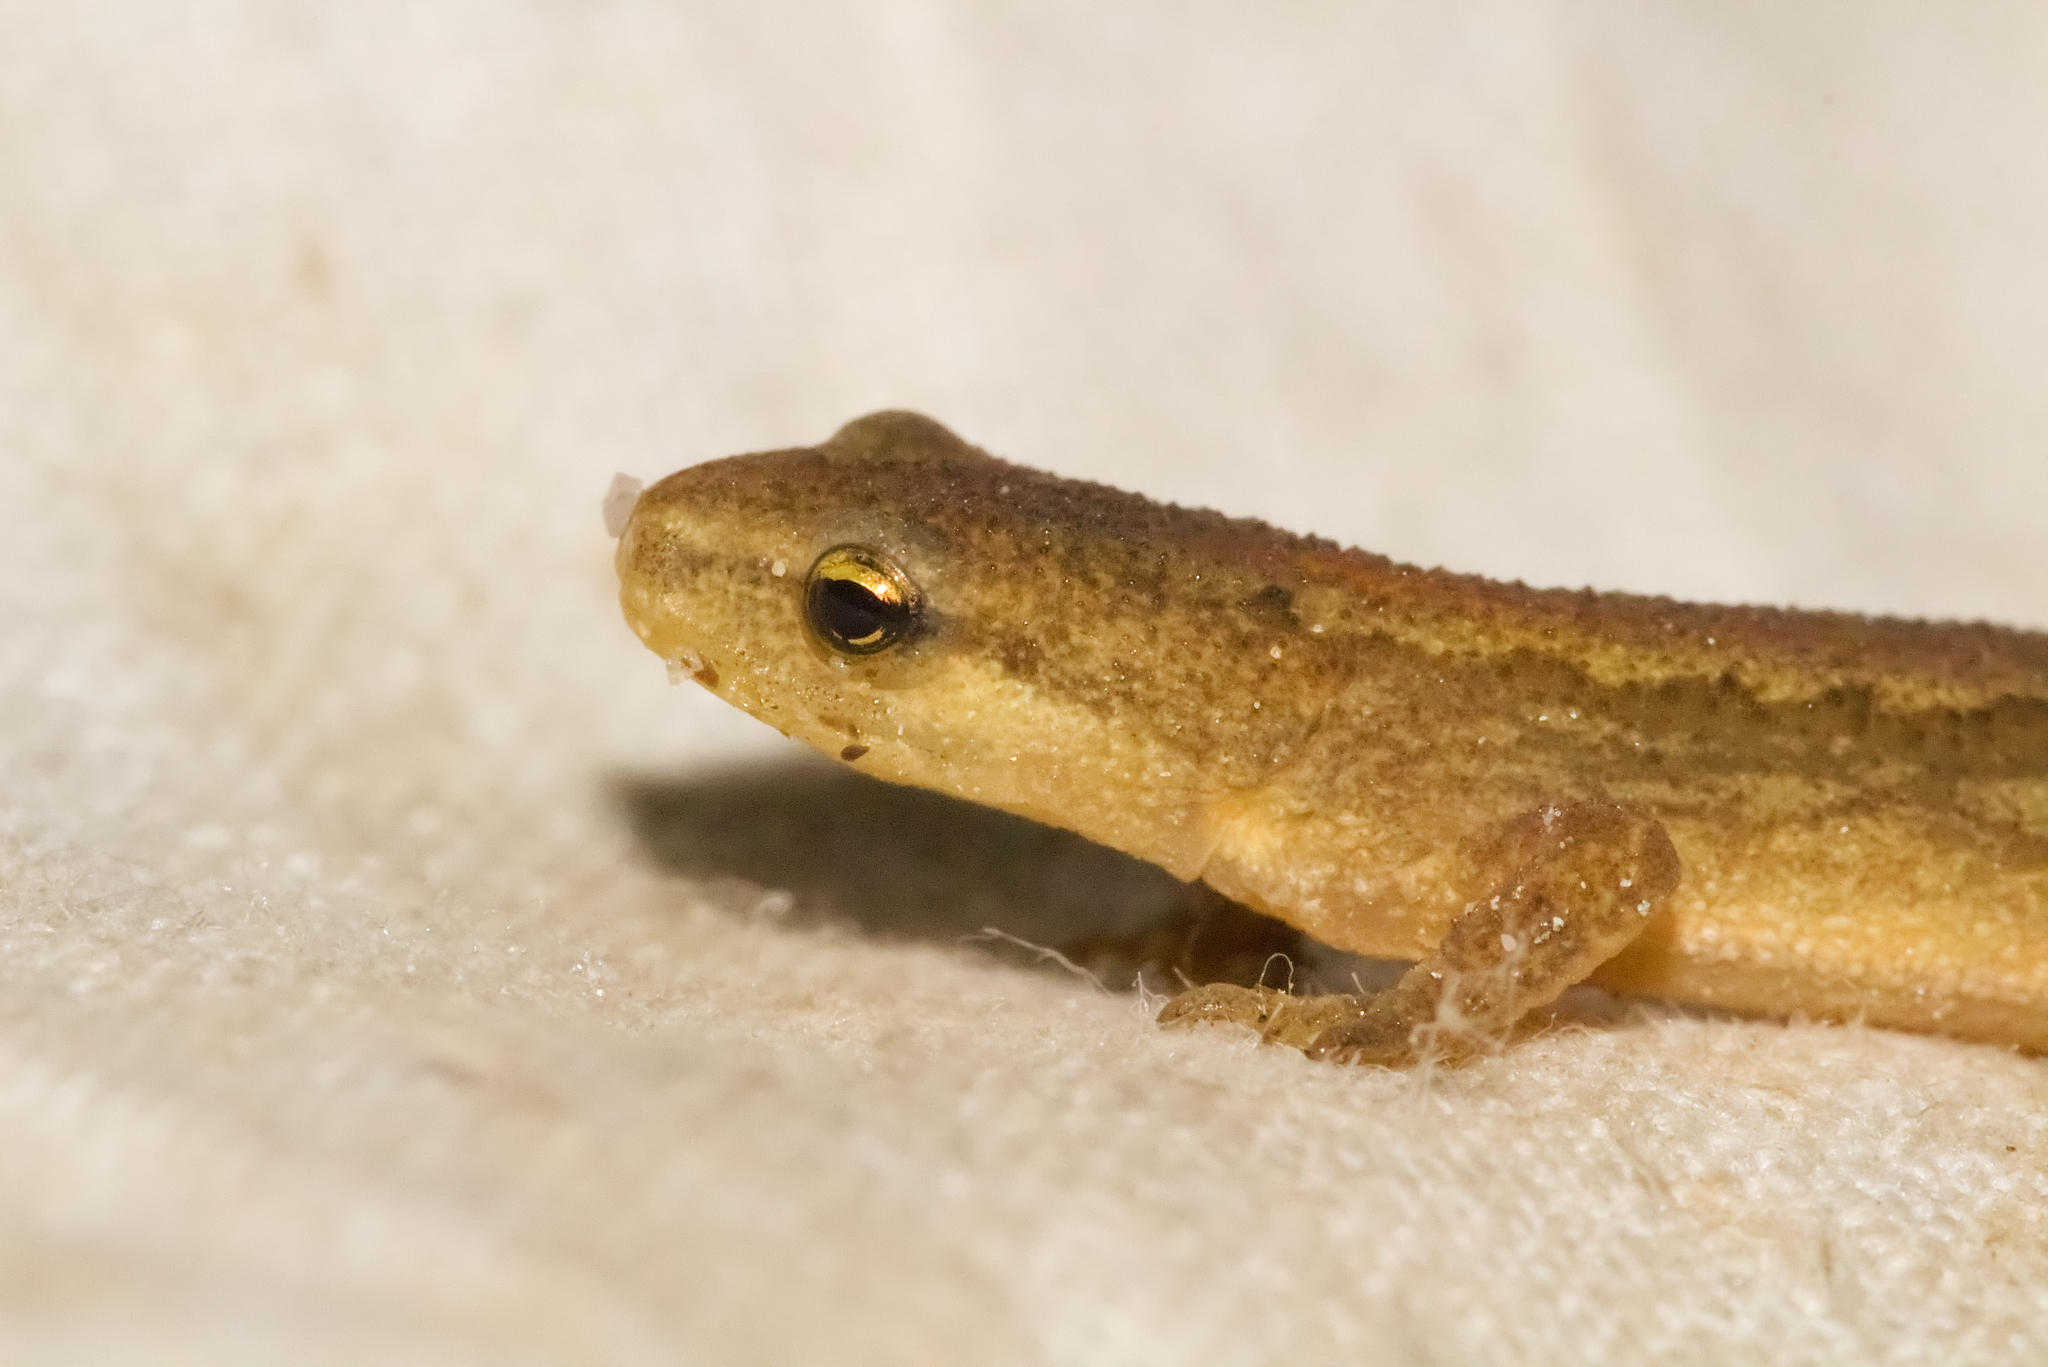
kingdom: Animalia
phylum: Chordata
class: Amphibia
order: Caudata
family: Salamandridae
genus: Lissotriton
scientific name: Lissotriton vulgaris
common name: Smooth newt
